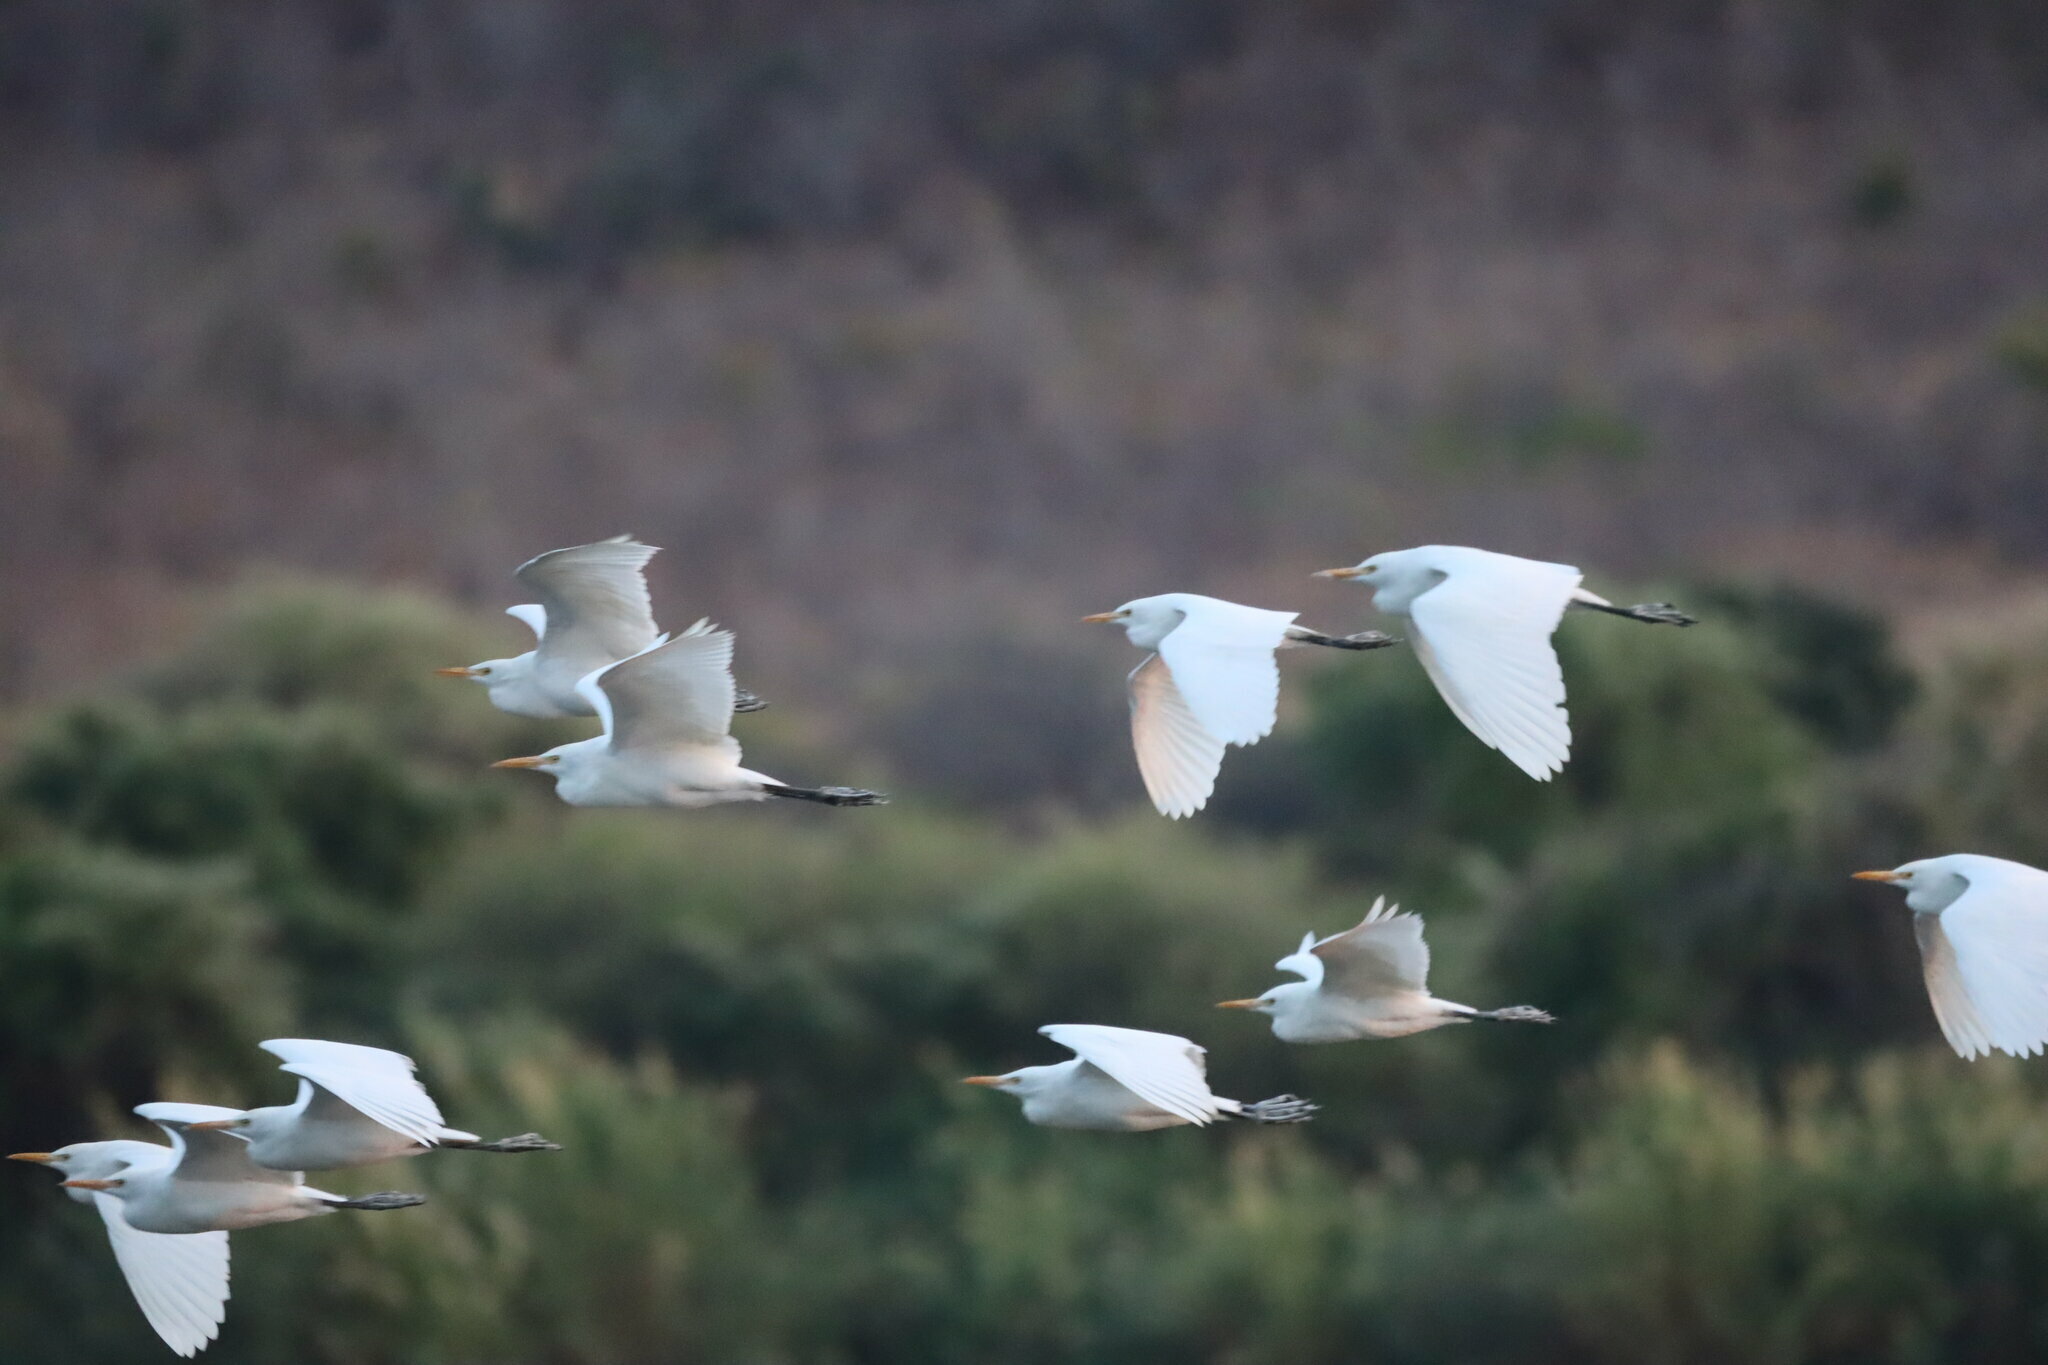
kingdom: Animalia
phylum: Chordata
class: Aves
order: Pelecaniformes
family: Ardeidae
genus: Bubulcus
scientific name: Bubulcus ibis
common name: Cattle egret
